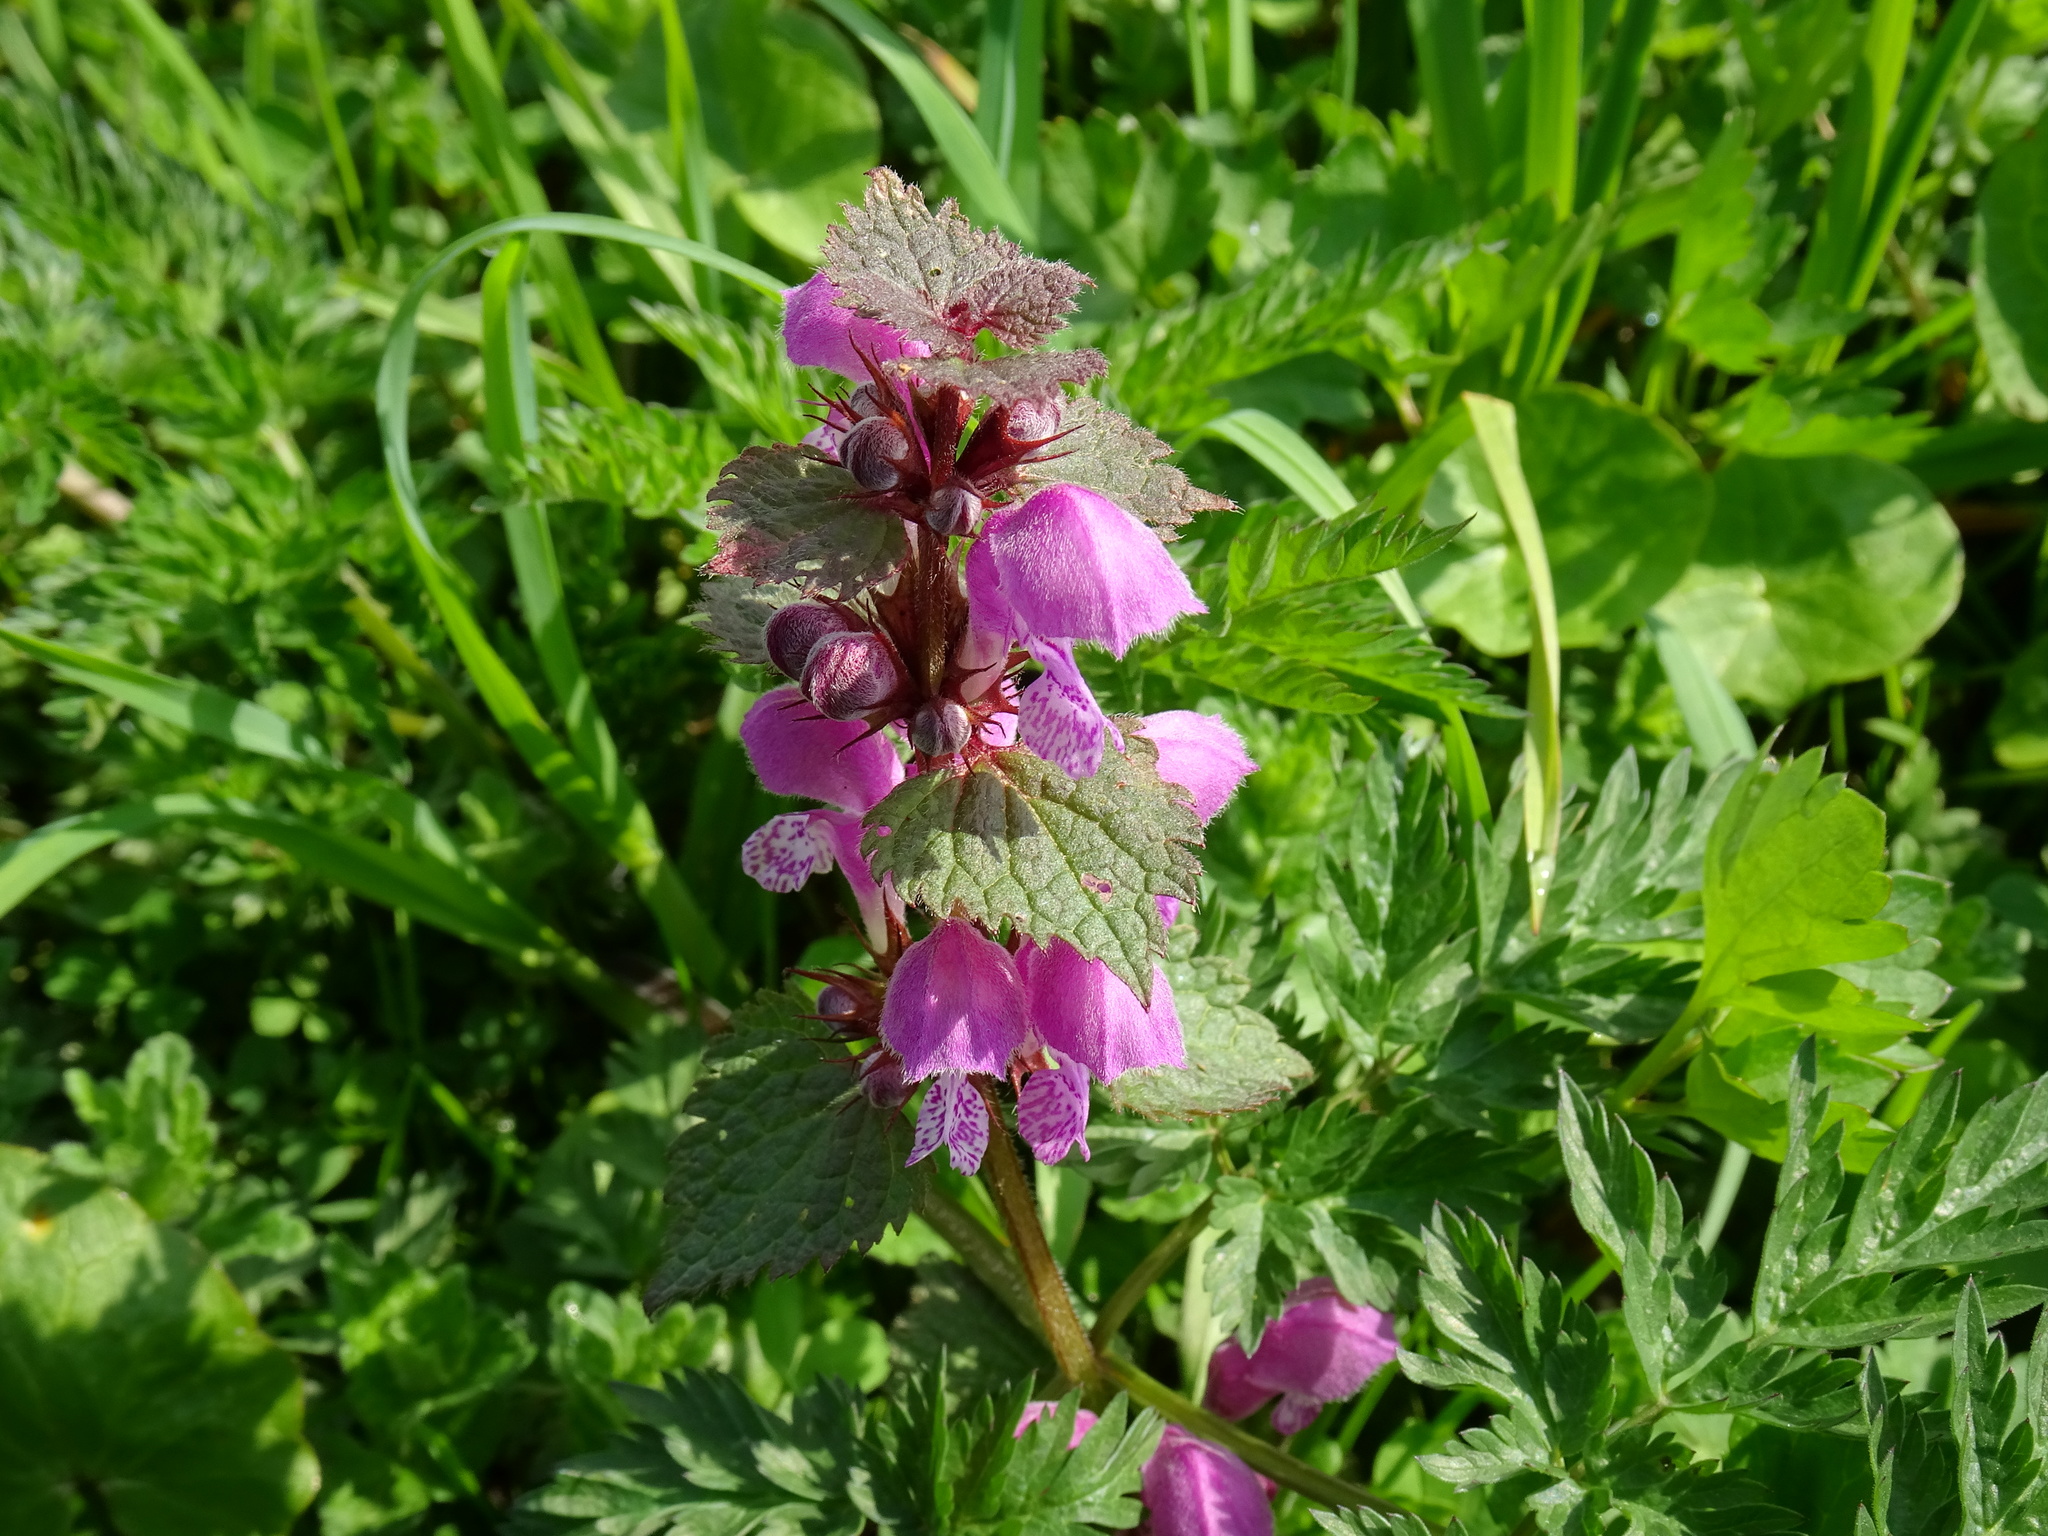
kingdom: Plantae
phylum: Tracheophyta
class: Magnoliopsida
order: Lamiales
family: Lamiaceae
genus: Lamium
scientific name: Lamium purpureum
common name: Red dead-nettle
